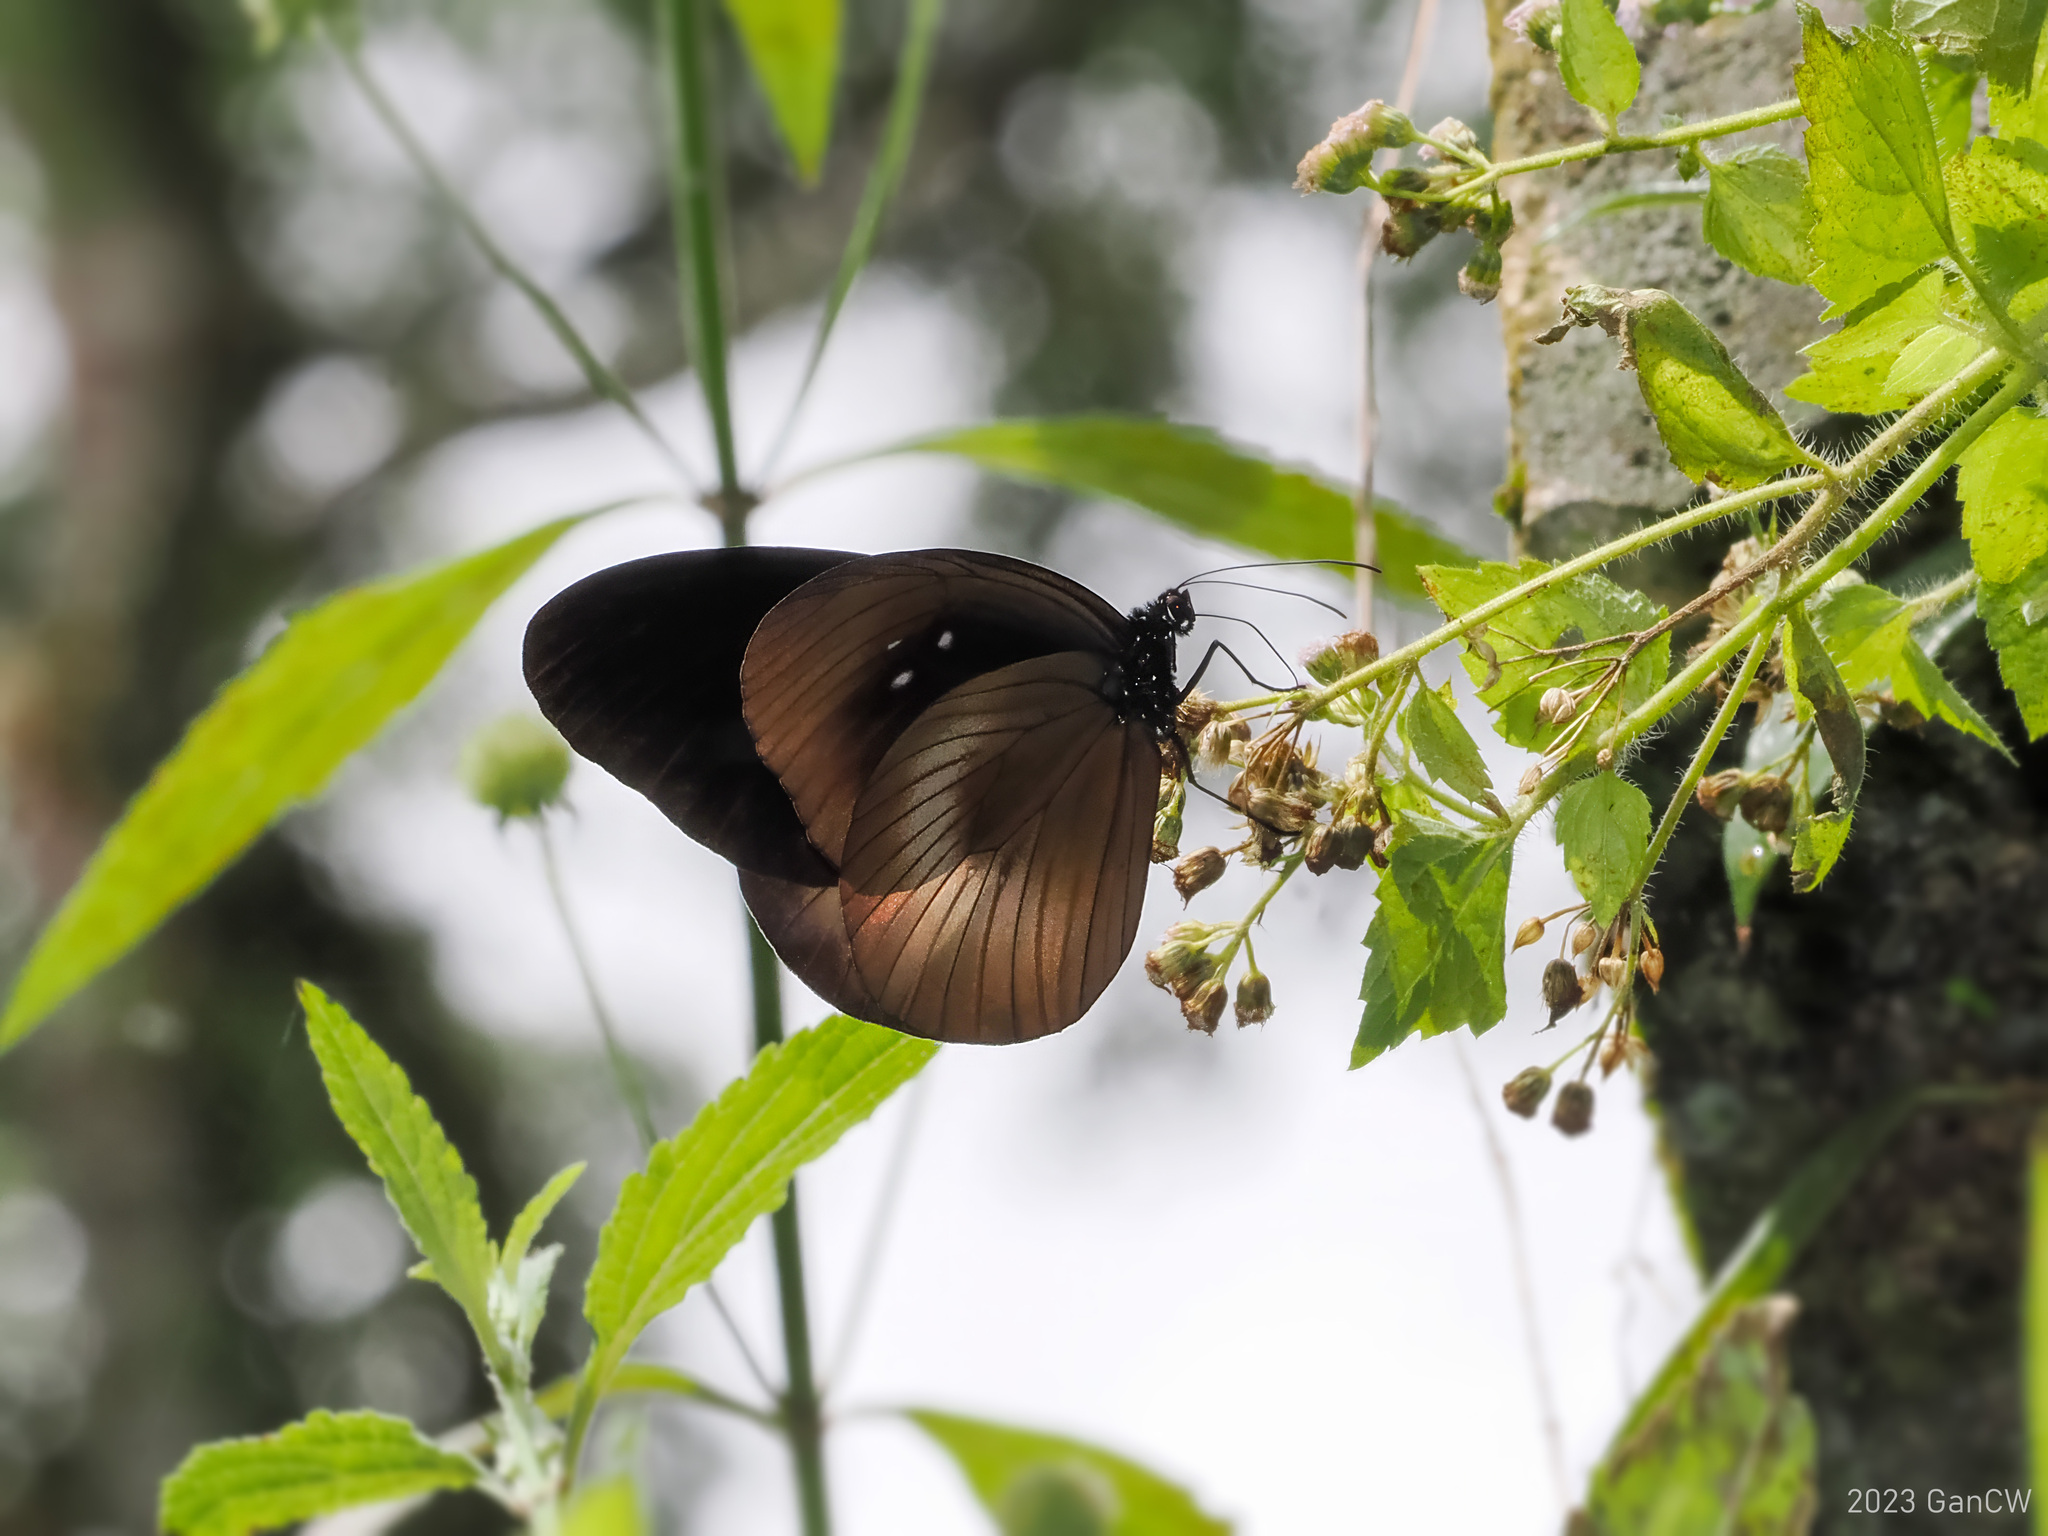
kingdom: Animalia
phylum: Arthropoda
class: Insecta
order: Lepidoptera
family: Nymphalidae
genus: Euploea
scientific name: Euploea magou
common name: Magou
